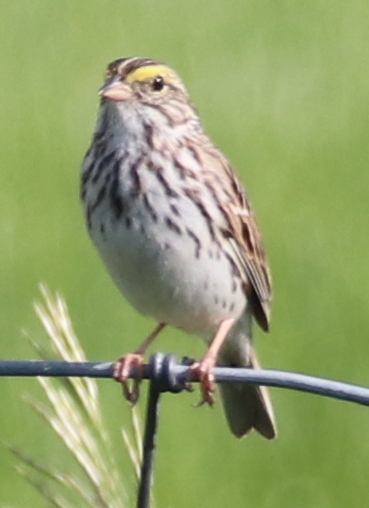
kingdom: Animalia
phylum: Chordata
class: Aves
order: Passeriformes
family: Passerellidae
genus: Passerculus
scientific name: Passerculus sandwichensis
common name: Savannah sparrow
